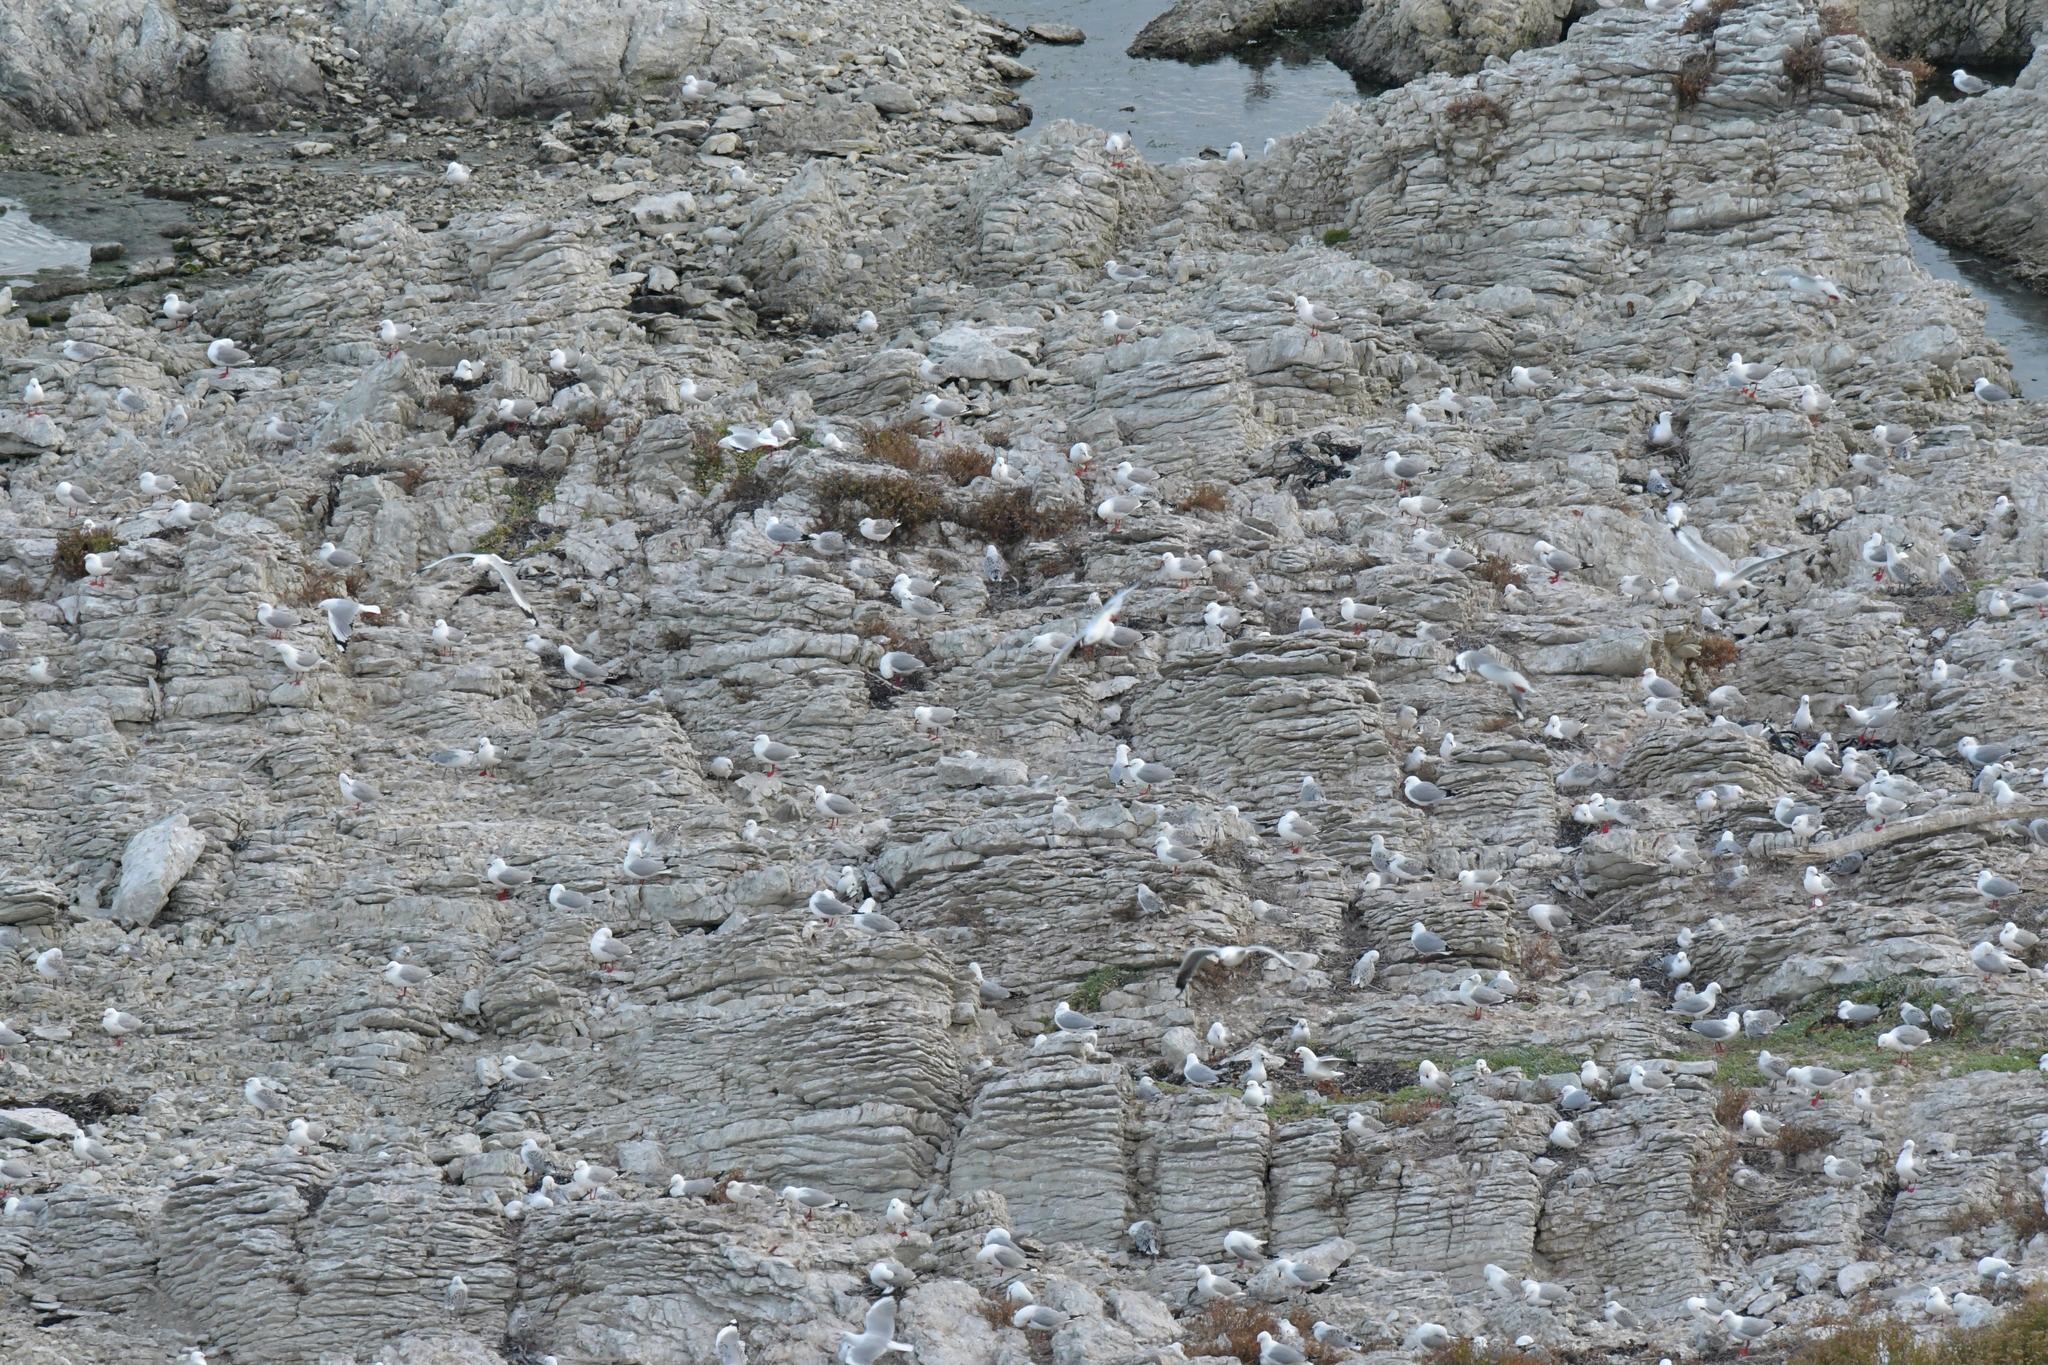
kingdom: Animalia
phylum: Chordata
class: Aves
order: Charadriiformes
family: Laridae
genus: Chroicocephalus
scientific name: Chroicocephalus novaehollandiae
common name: Silver gull
